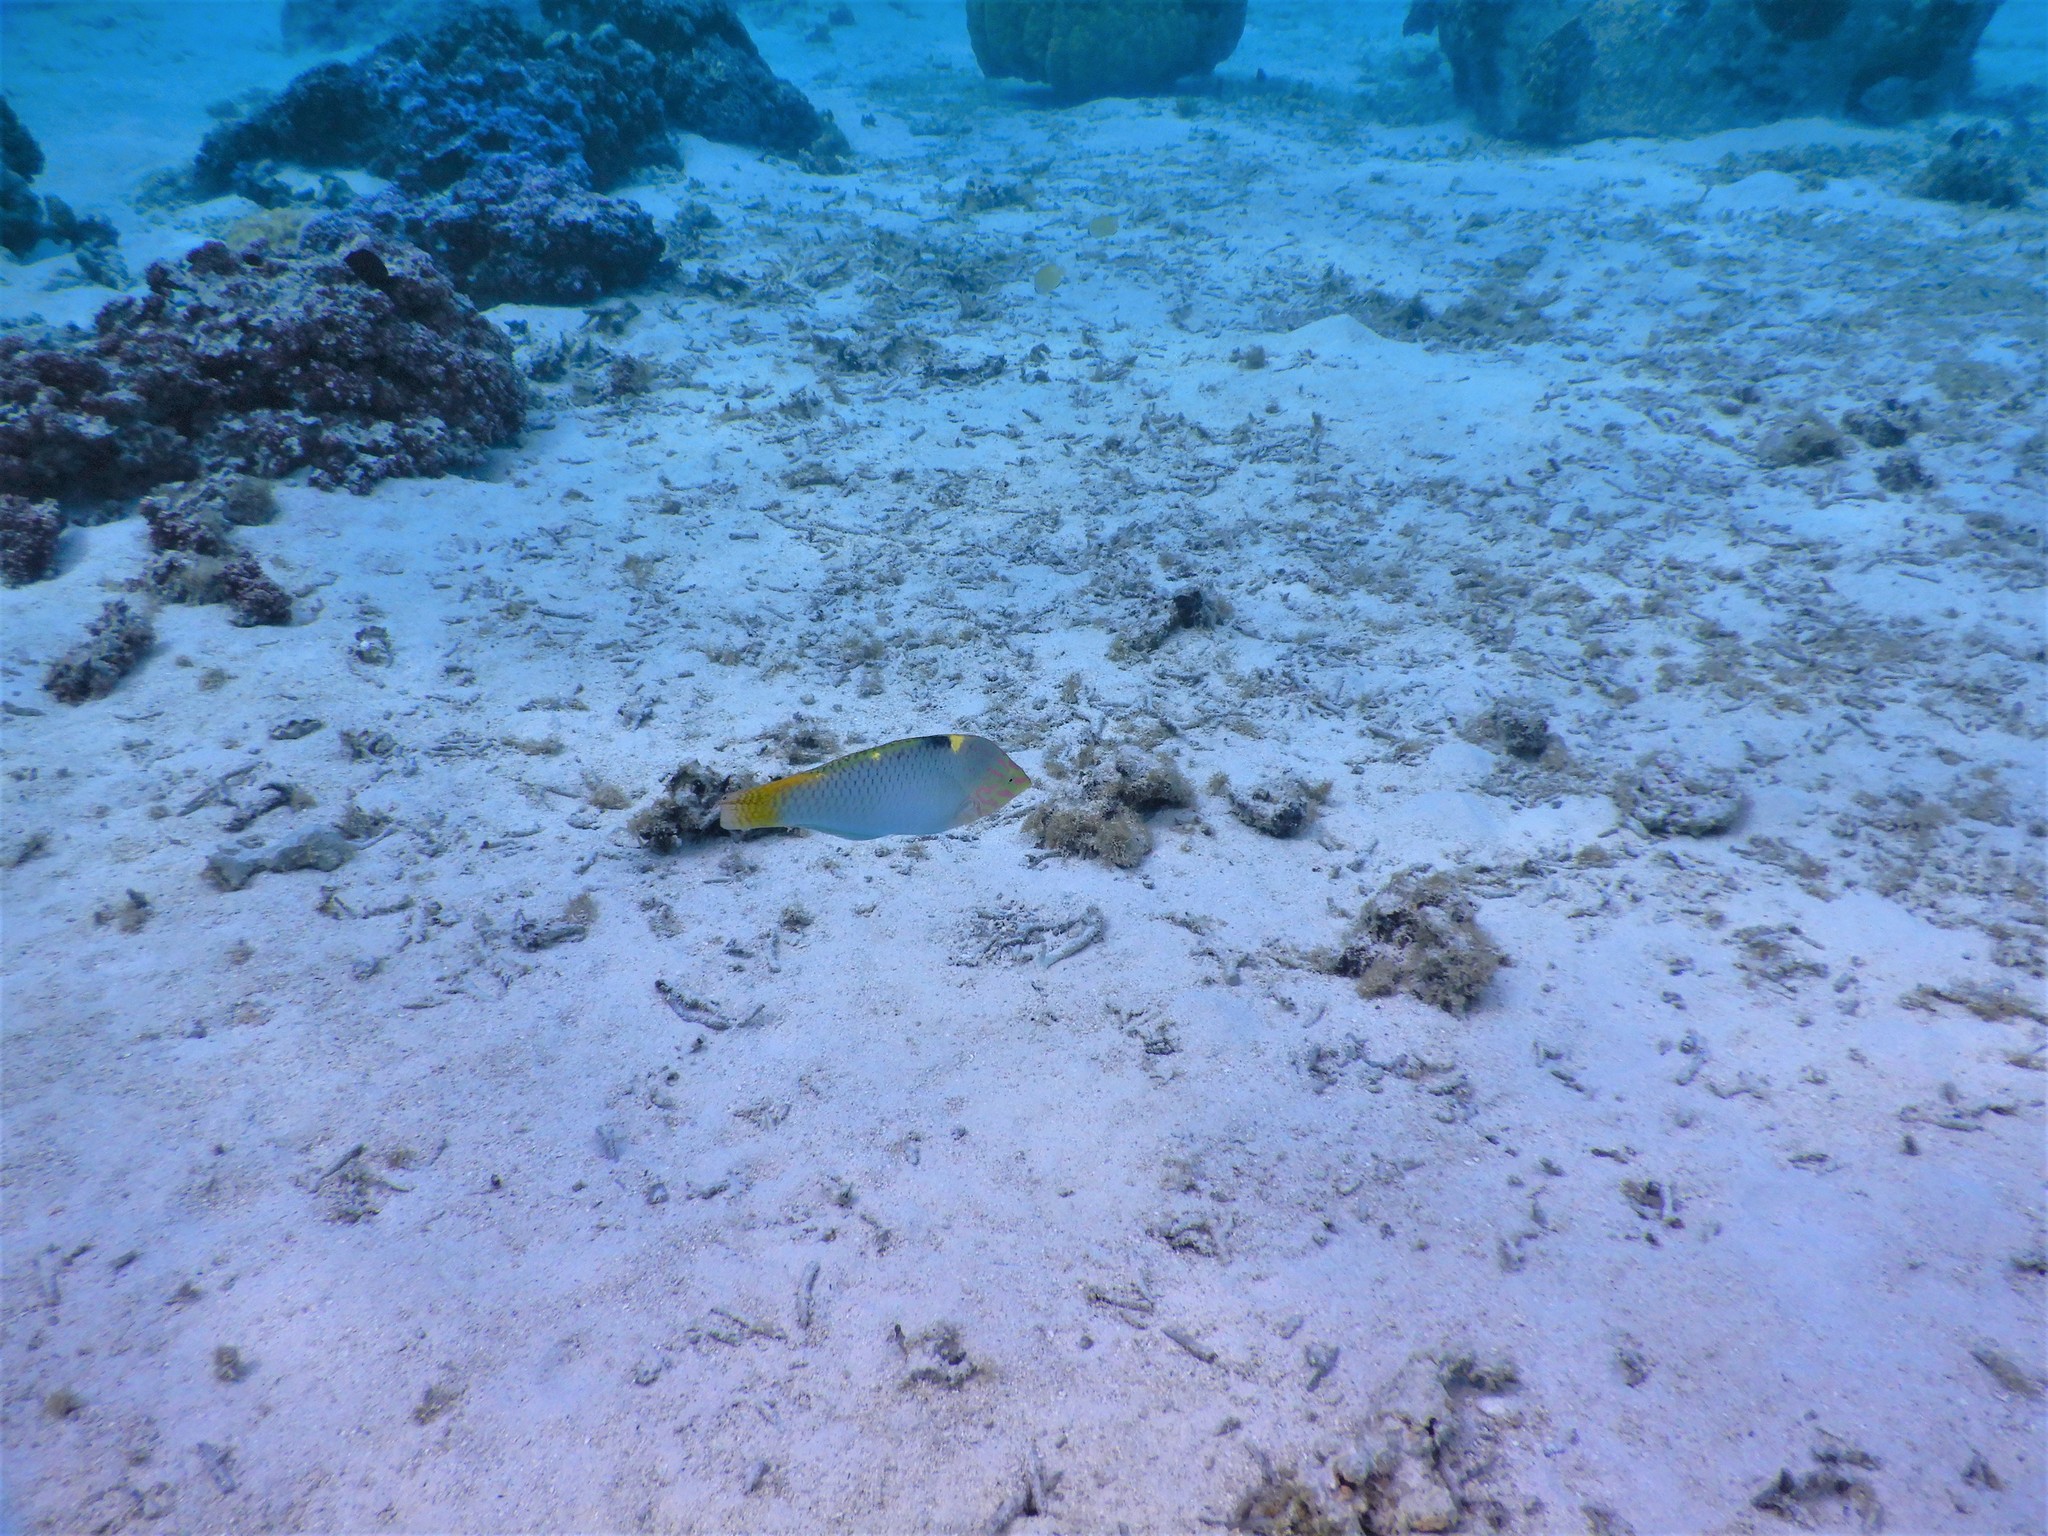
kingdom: Animalia
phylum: Chordata
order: Perciformes
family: Labridae
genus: Halichoeres
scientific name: Halichoeres hortulanus
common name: Checkerboard wrasse
